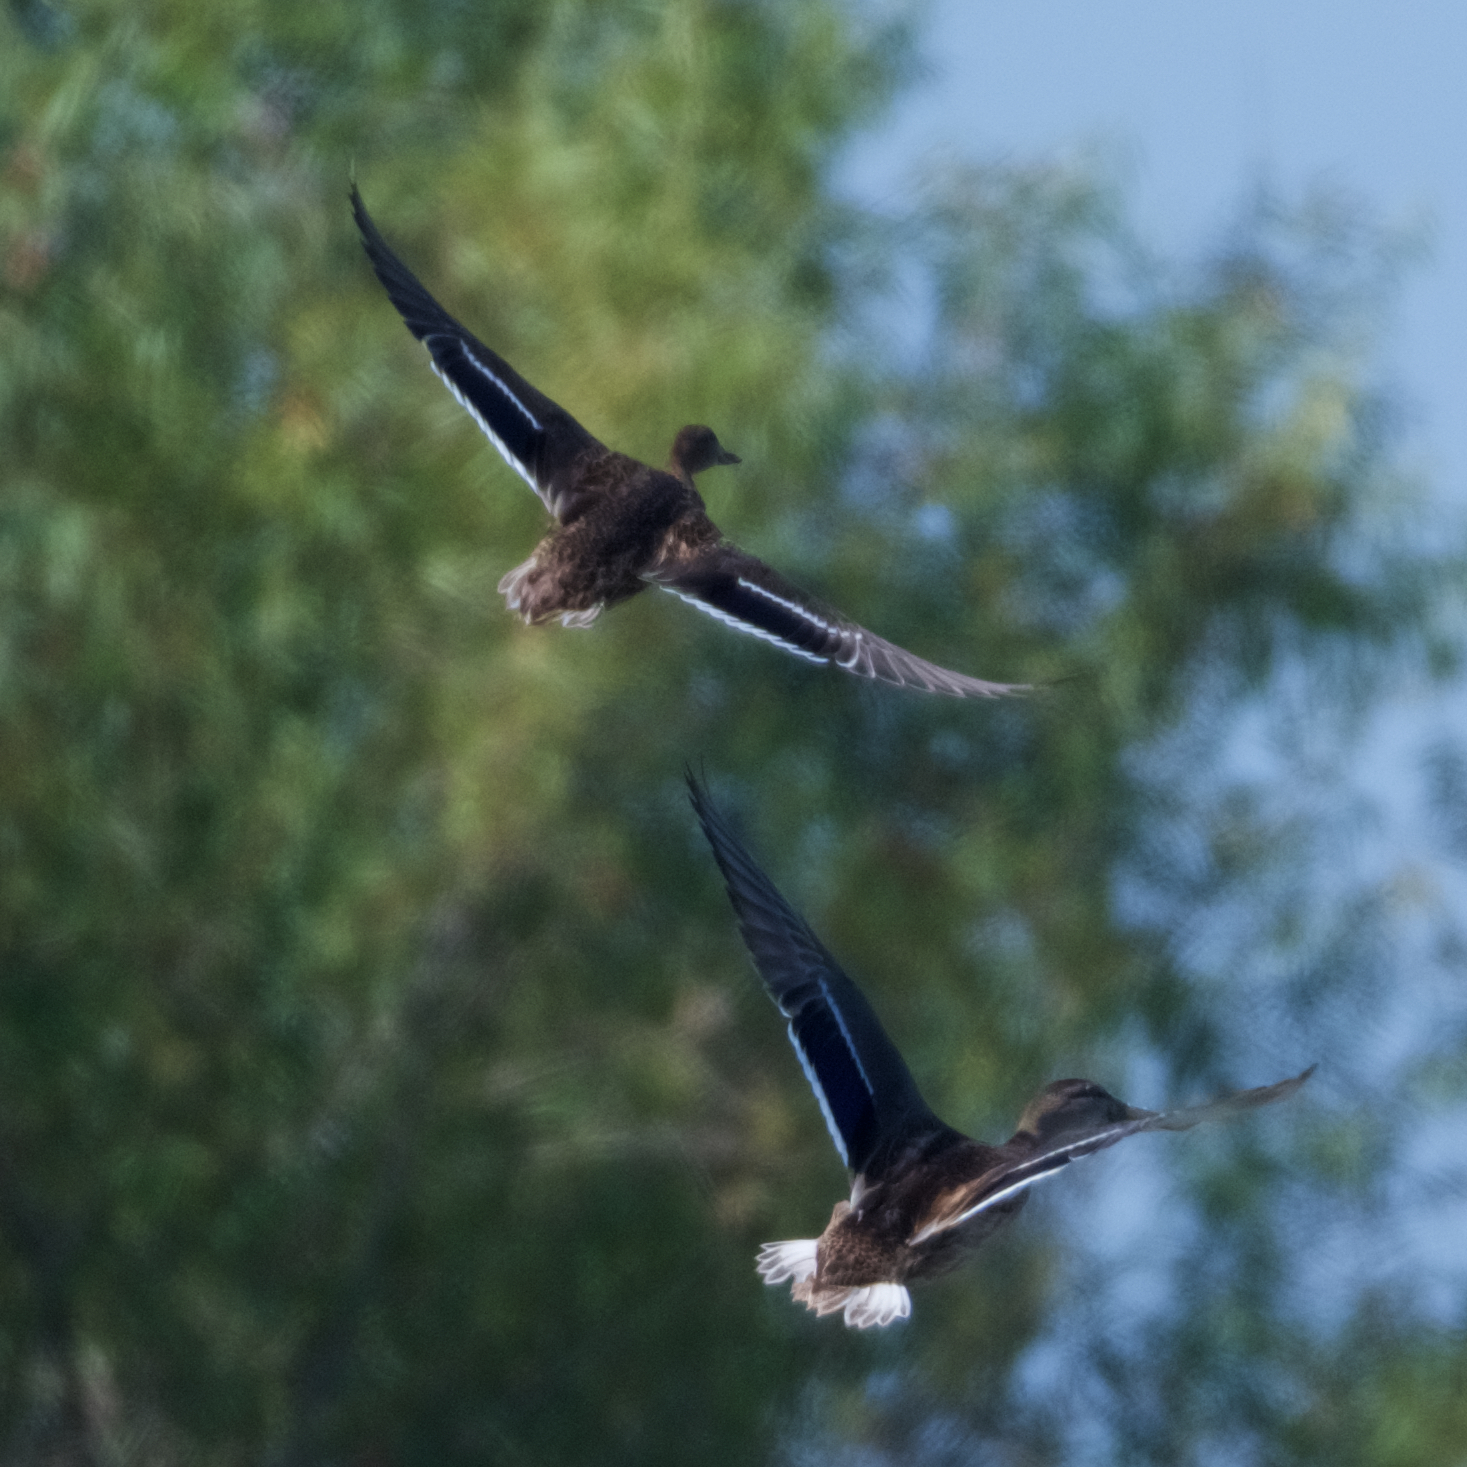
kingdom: Animalia
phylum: Chordata
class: Aves
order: Anseriformes
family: Anatidae
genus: Anas
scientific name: Anas platyrhynchos
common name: Mallard
